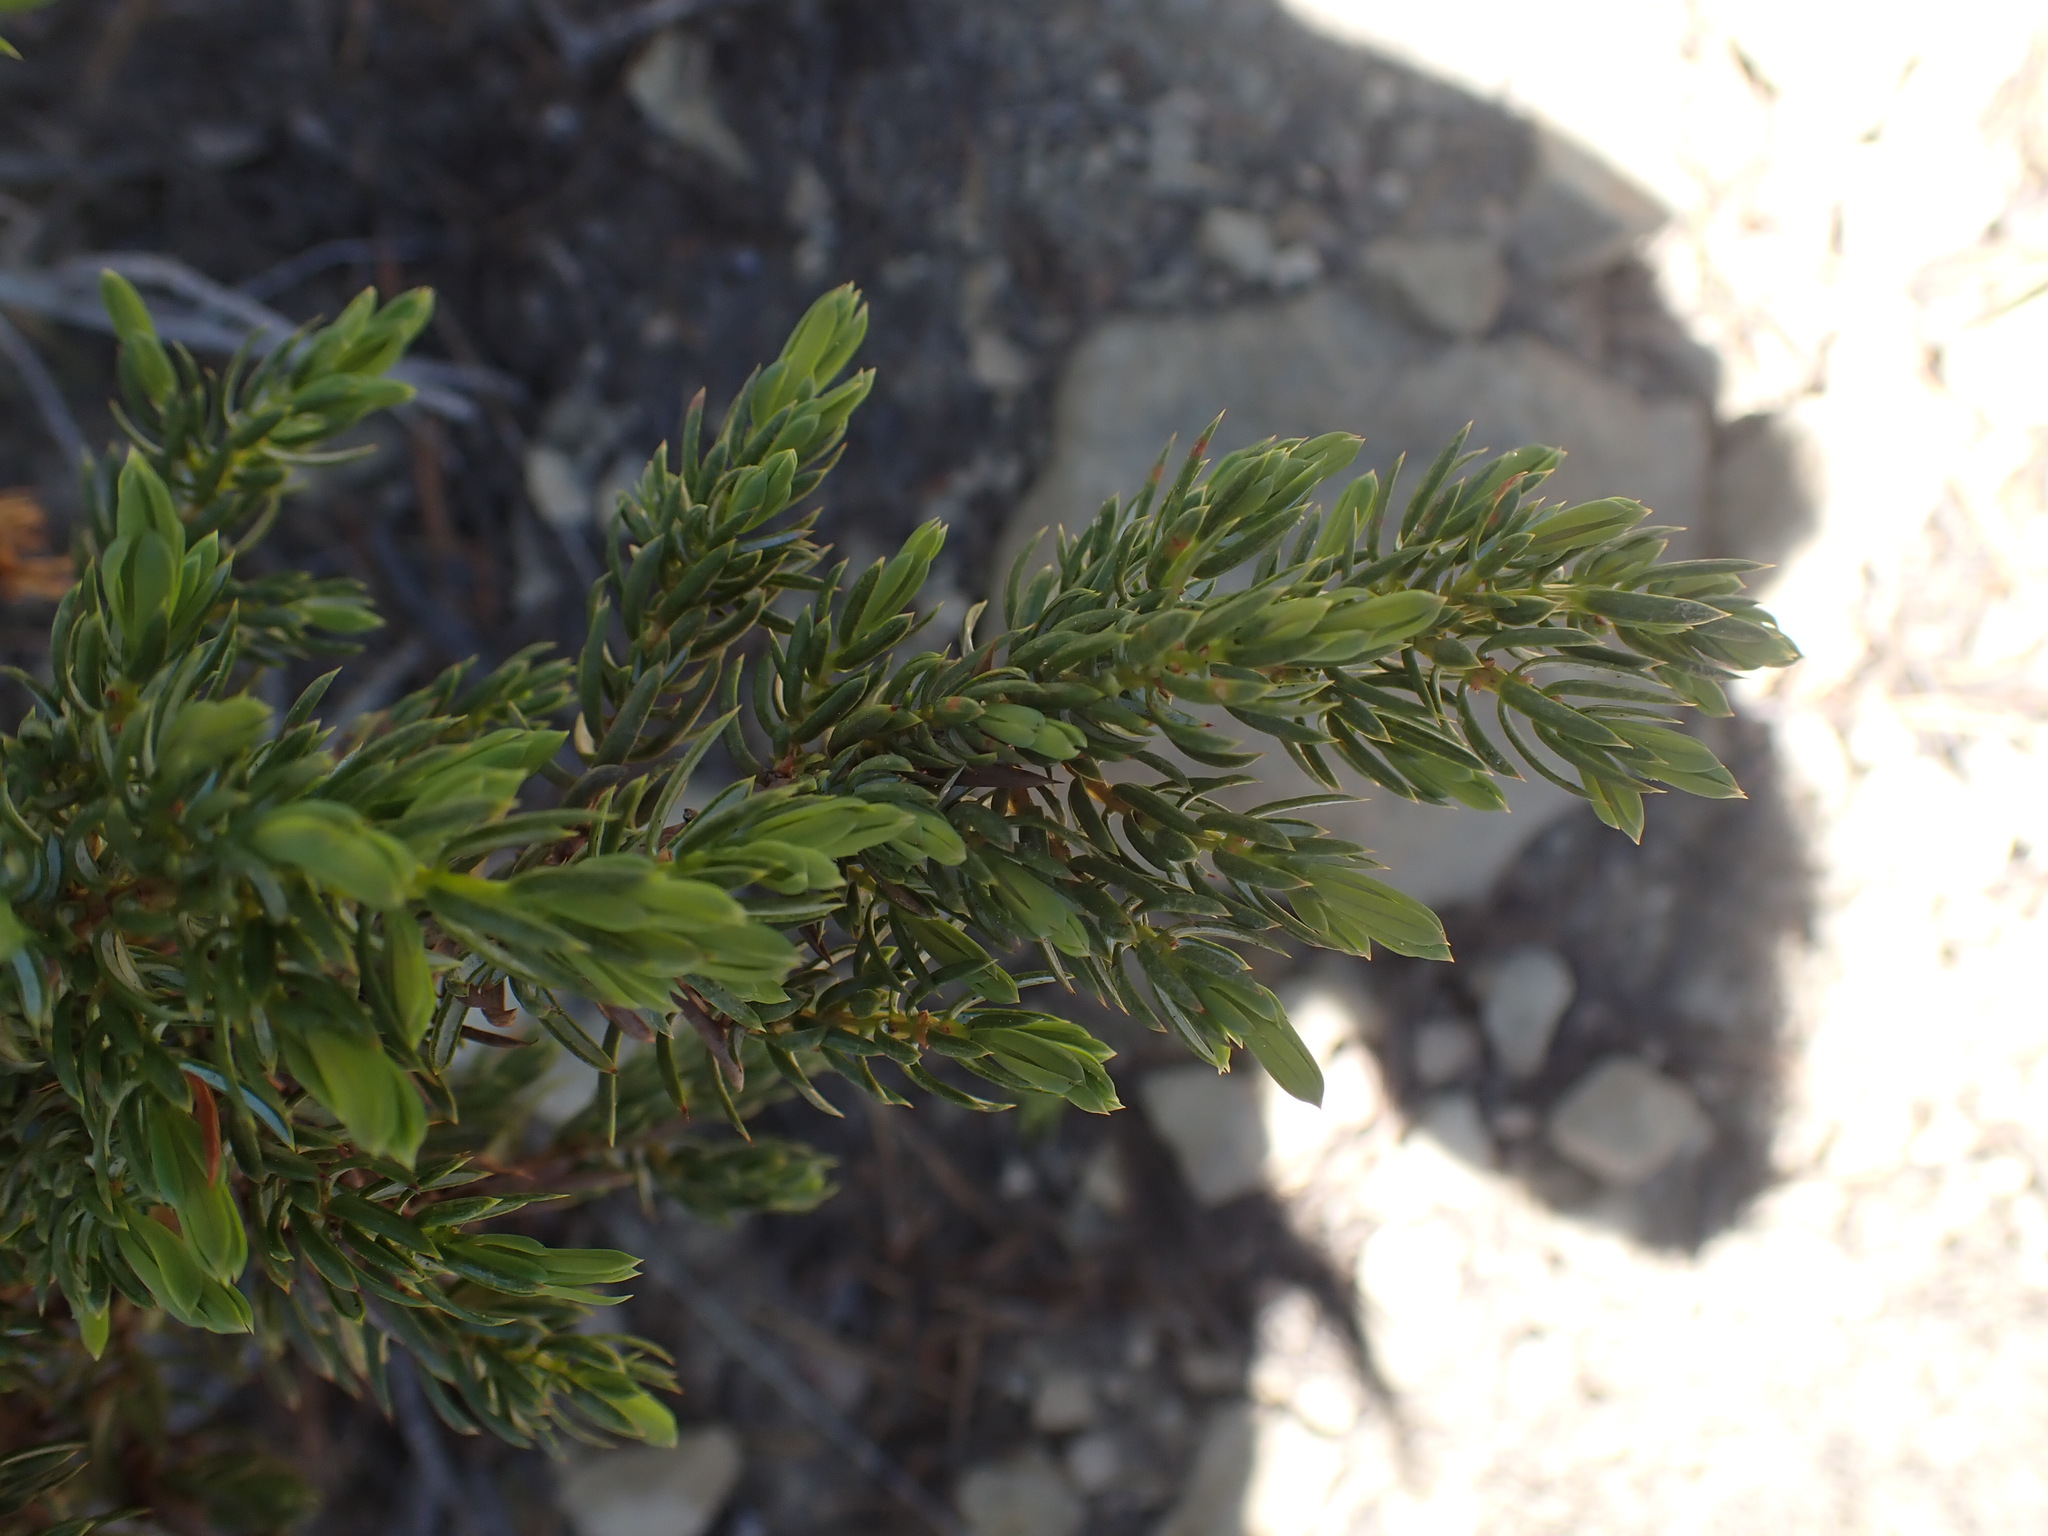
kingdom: Plantae
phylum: Tracheophyta
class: Pinopsida
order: Pinales
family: Cupressaceae
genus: Juniperus
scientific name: Juniperus communis
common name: Common juniper
